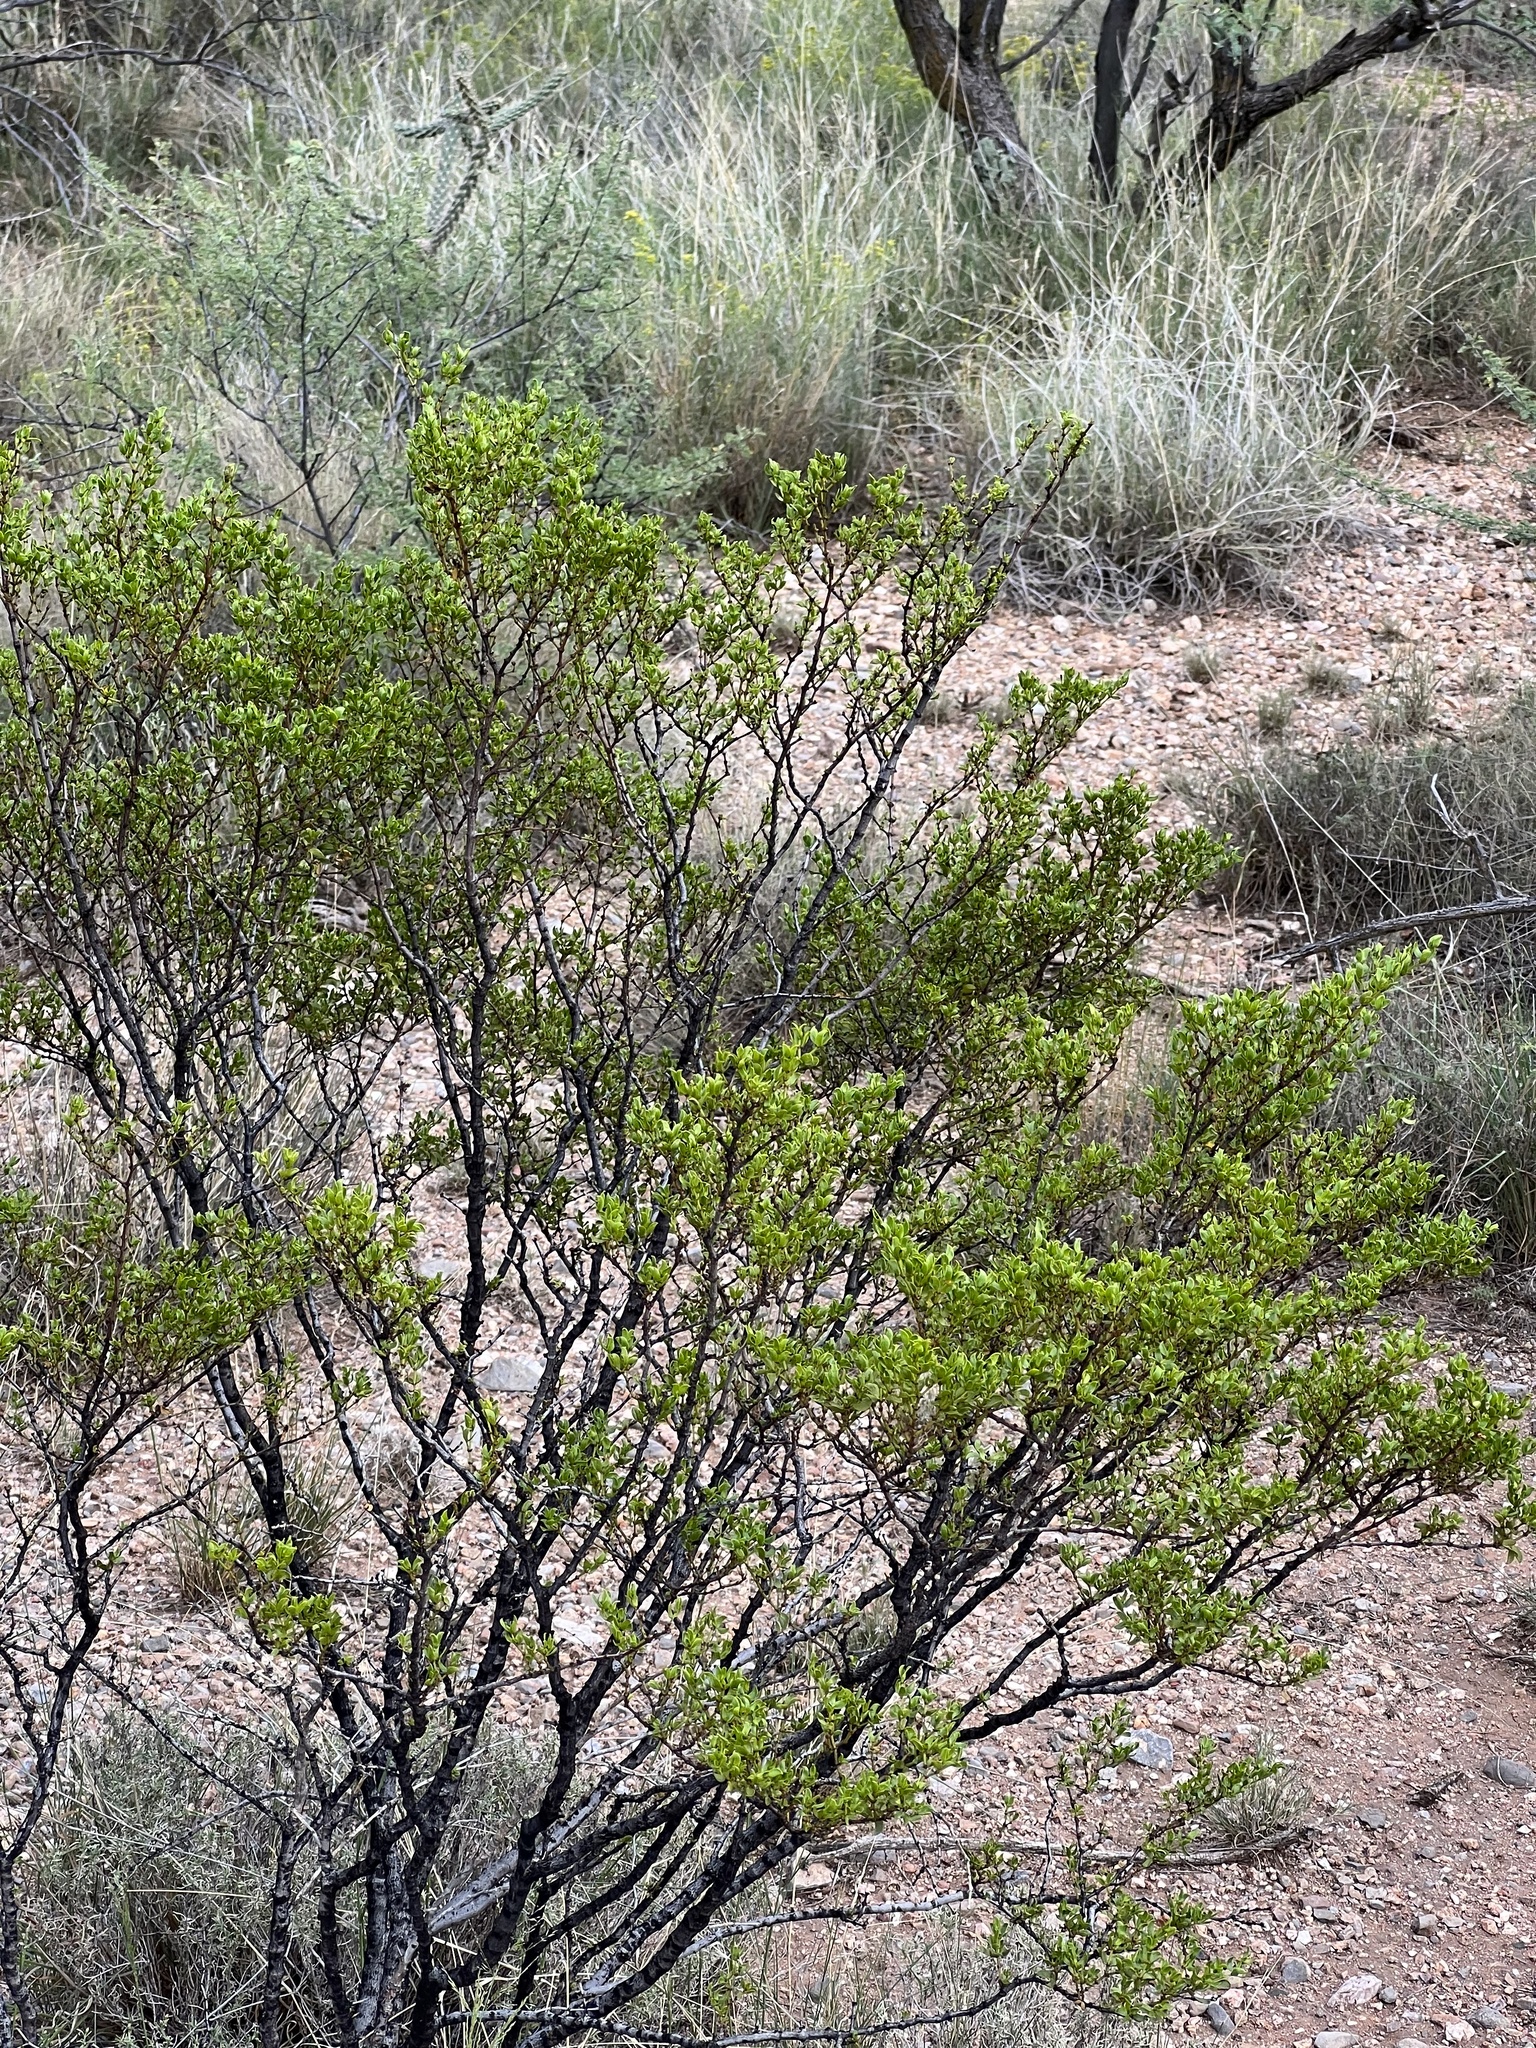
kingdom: Plantae
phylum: Tracheophyta
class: Magnoliopsida
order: Zygophyllales
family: Zygophyllaceae
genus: Larrea
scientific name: Larrea tridentata
